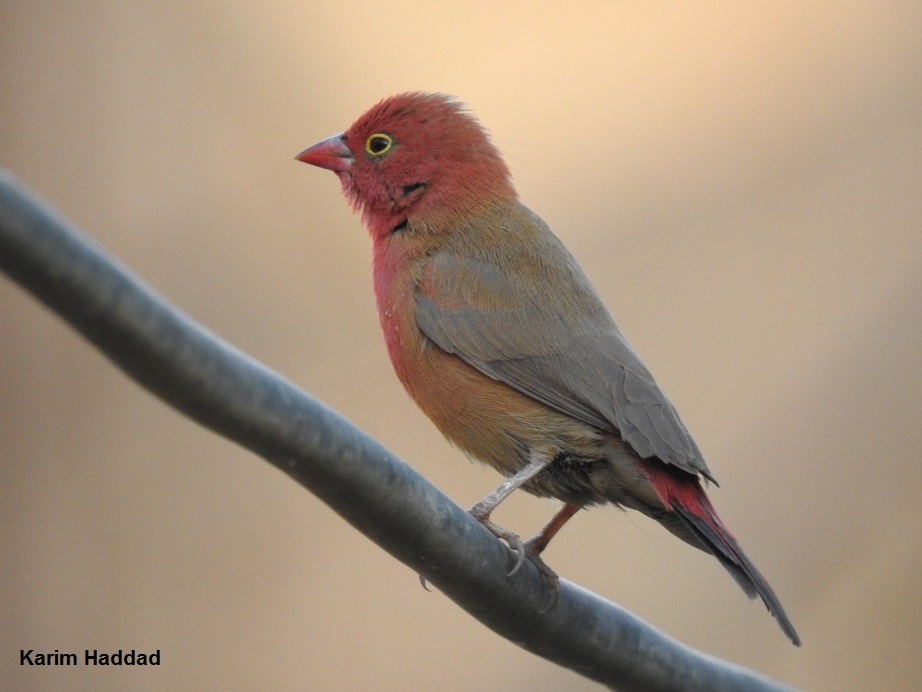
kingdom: Animalia
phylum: Chordata
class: Aves
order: Passeriformes
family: Estrildidae
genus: Lagonosticta
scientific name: Lagonosticta senegala
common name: Red-billed firefinch
